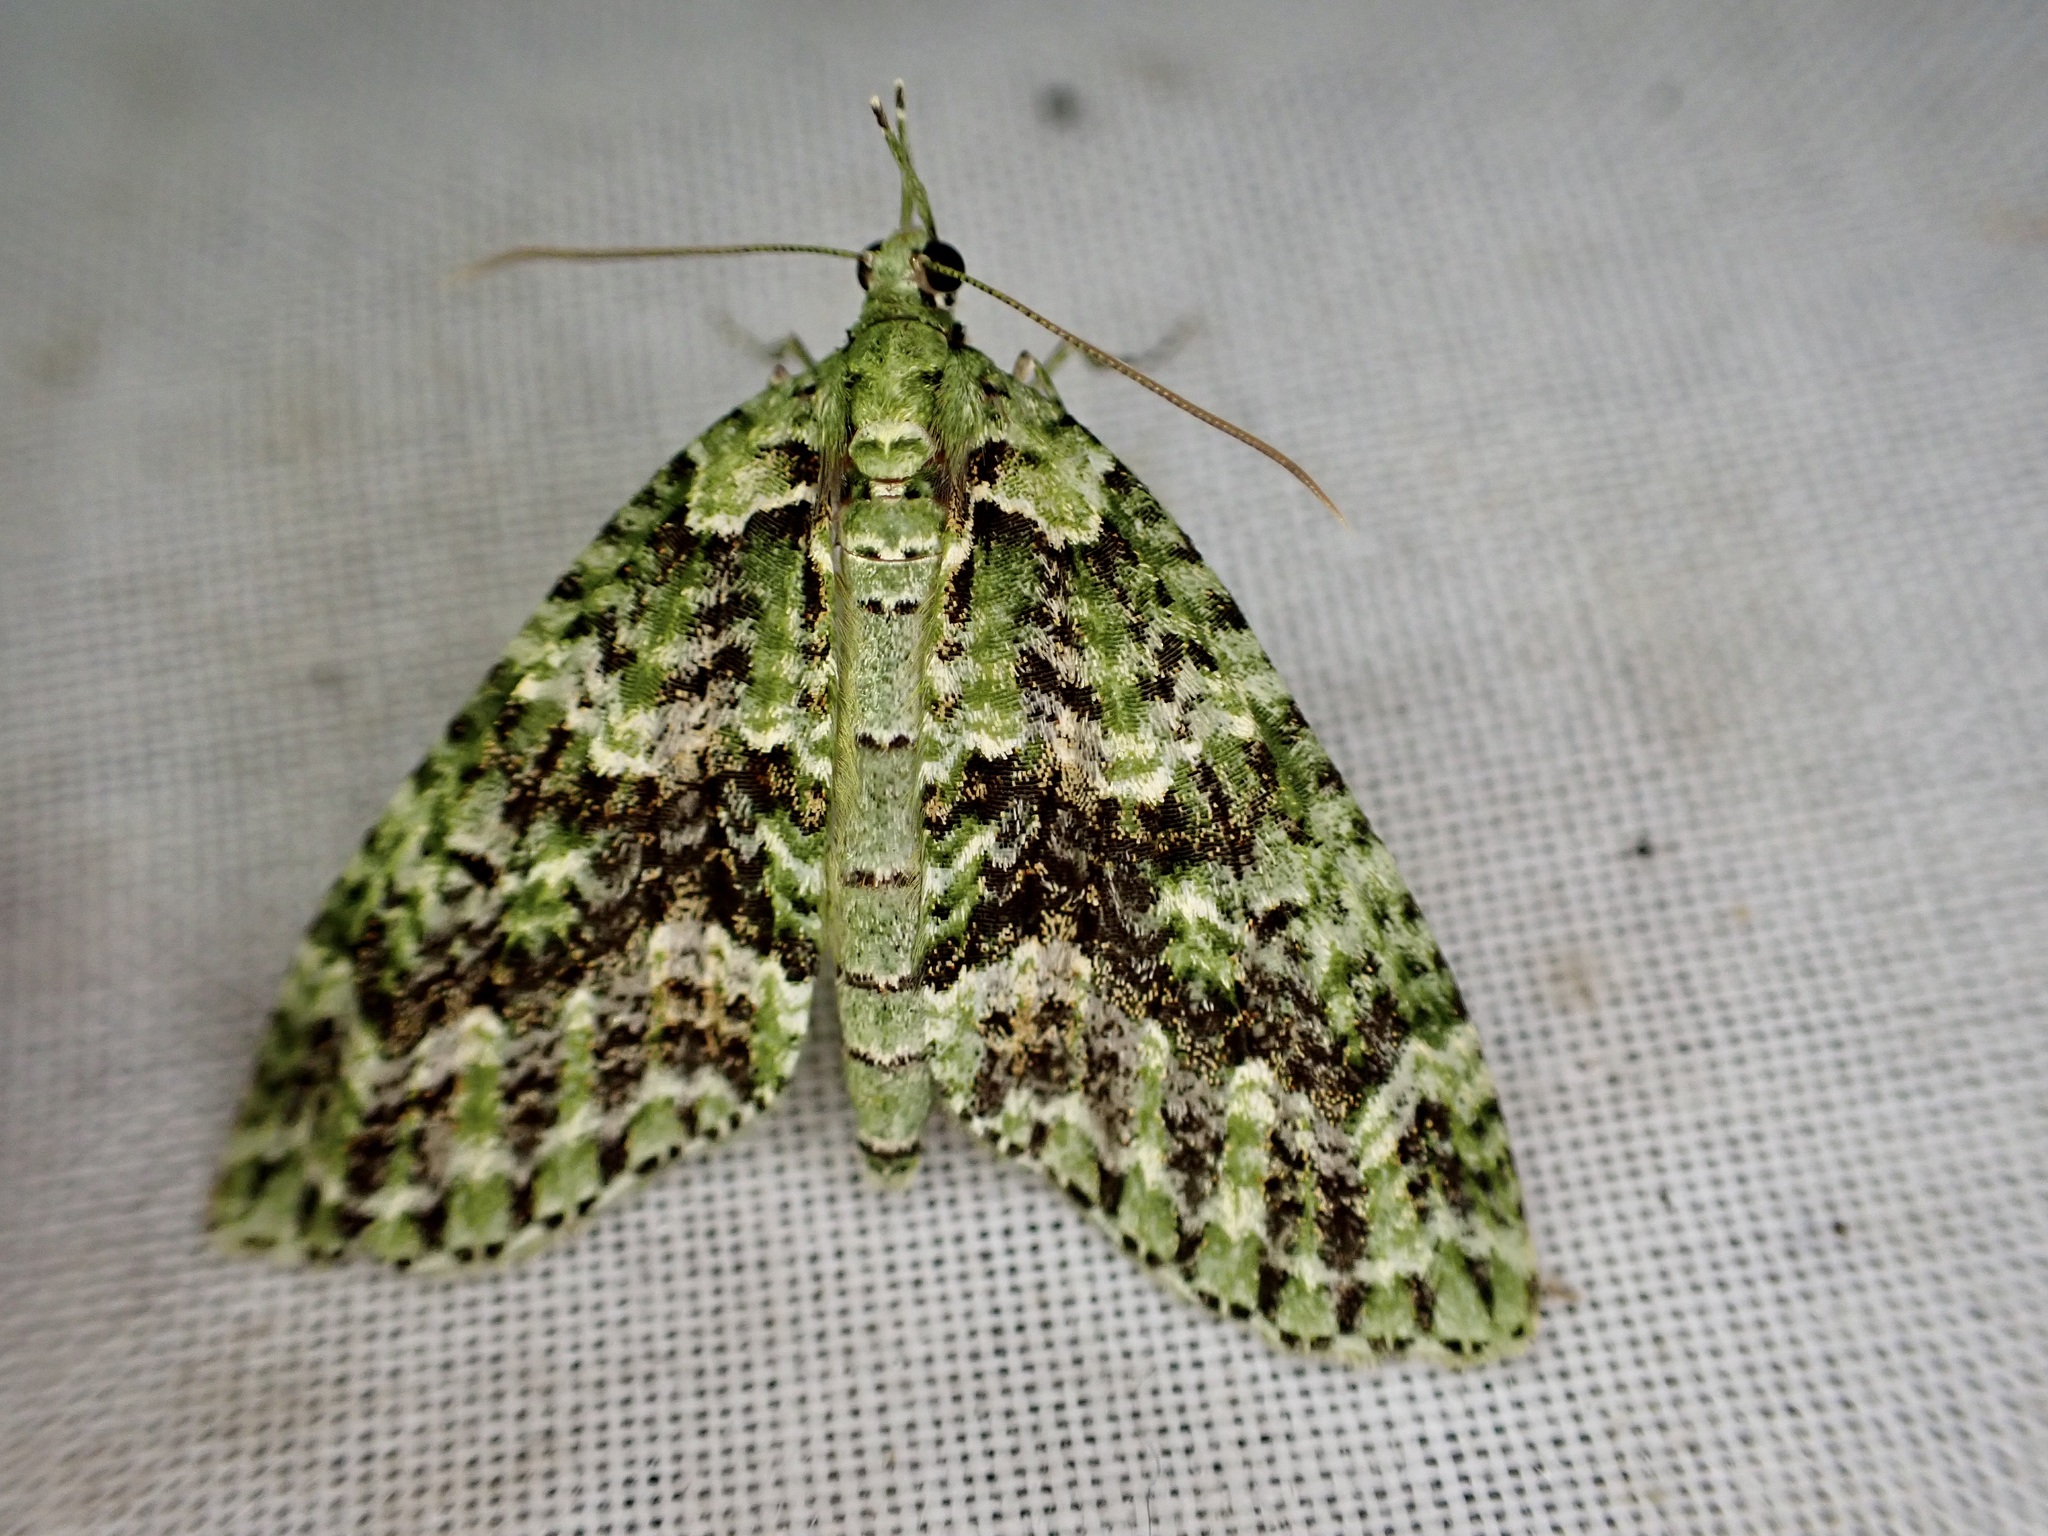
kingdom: Animalia
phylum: Arthropoda
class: Insecta
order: Lepidoptera
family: Geometridae
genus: Tatosoma
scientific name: Tatosoma tipulata
